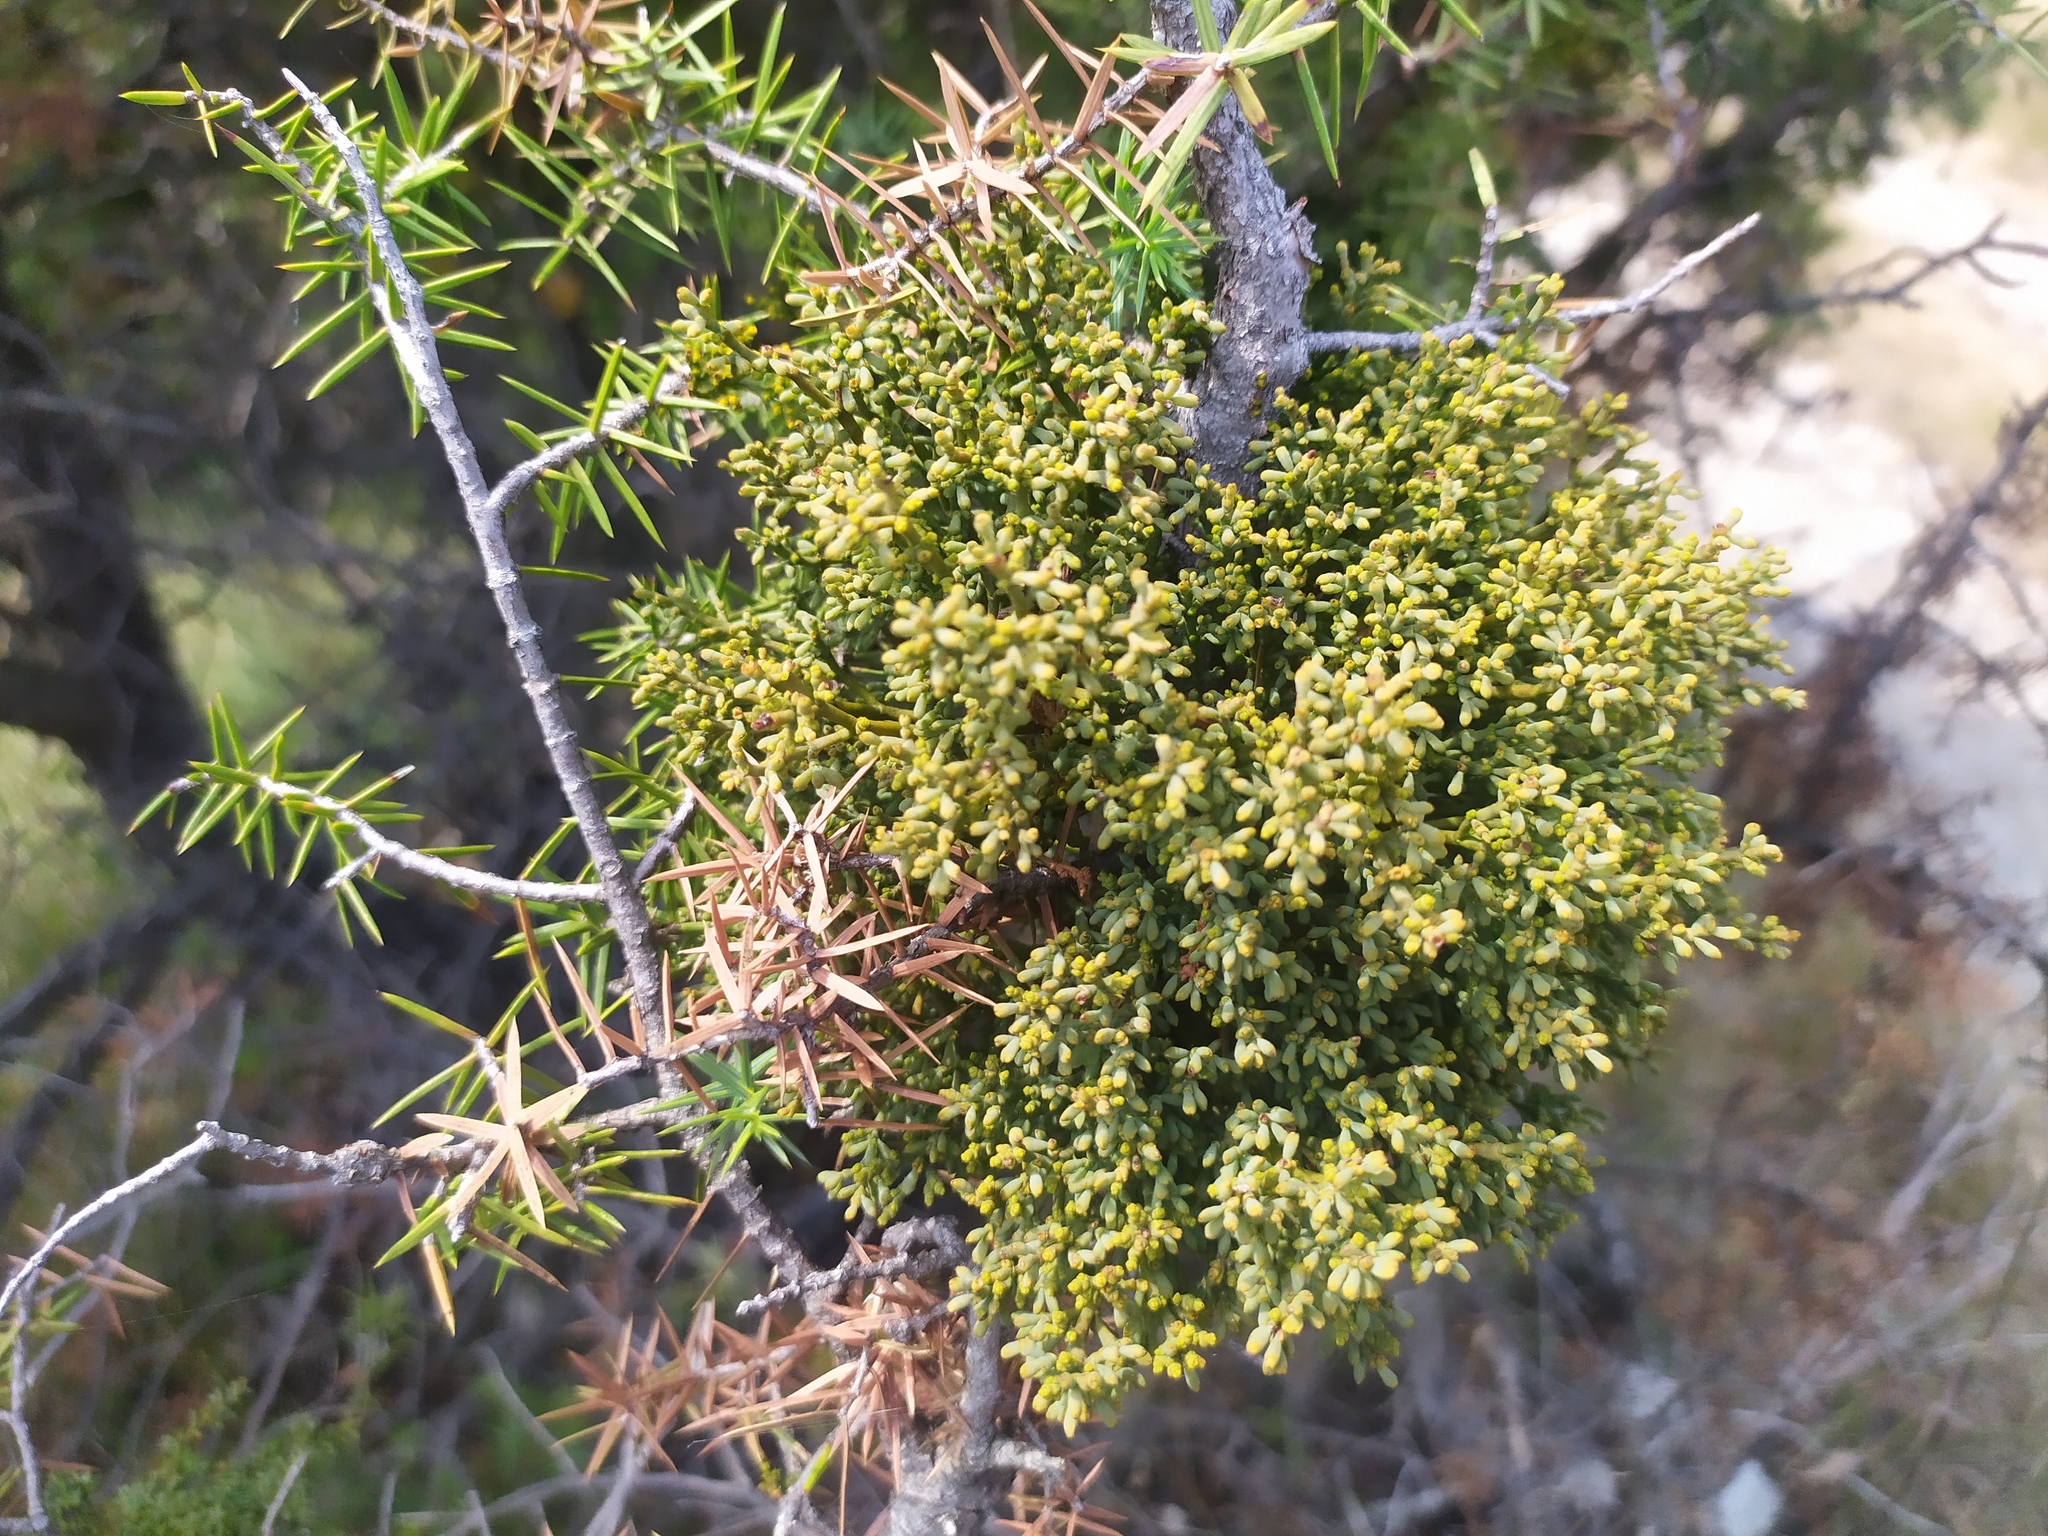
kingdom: Plantae
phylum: Tracheophyta
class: Magnoliopsida
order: Santalales
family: Viscaceae
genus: Arceuthobium
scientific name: Arceuthobium oxycedri
